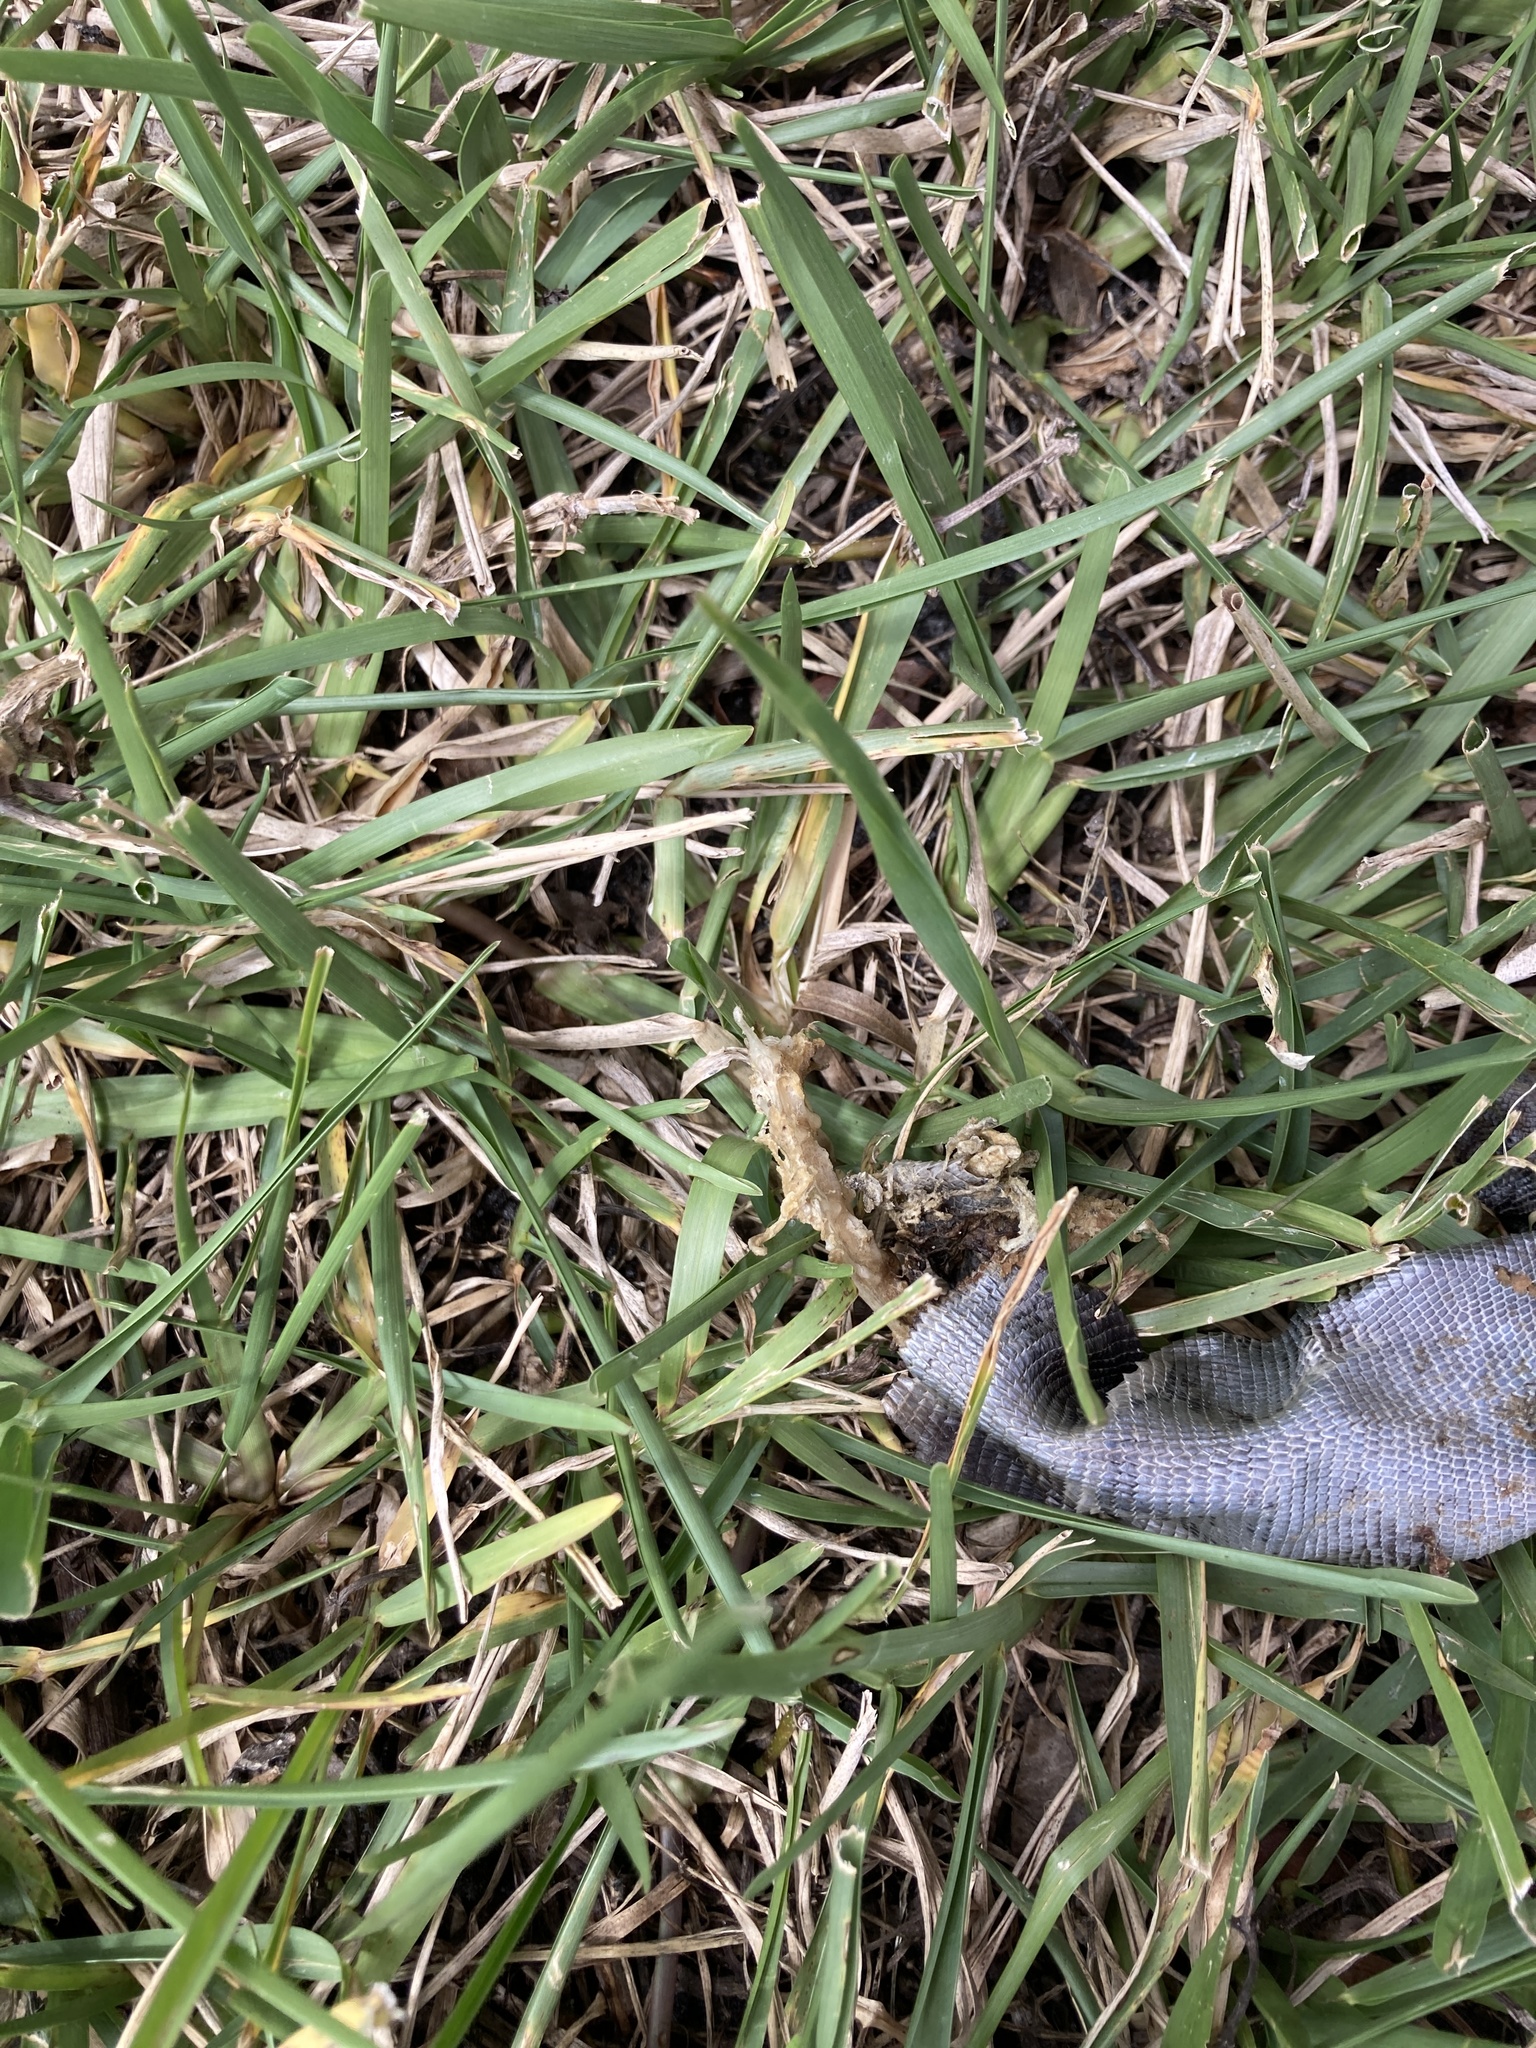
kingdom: Animalia
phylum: Chordata
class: Squamata
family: Iguanidae
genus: Iguana
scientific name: Iguana iguana
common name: Green iguana
